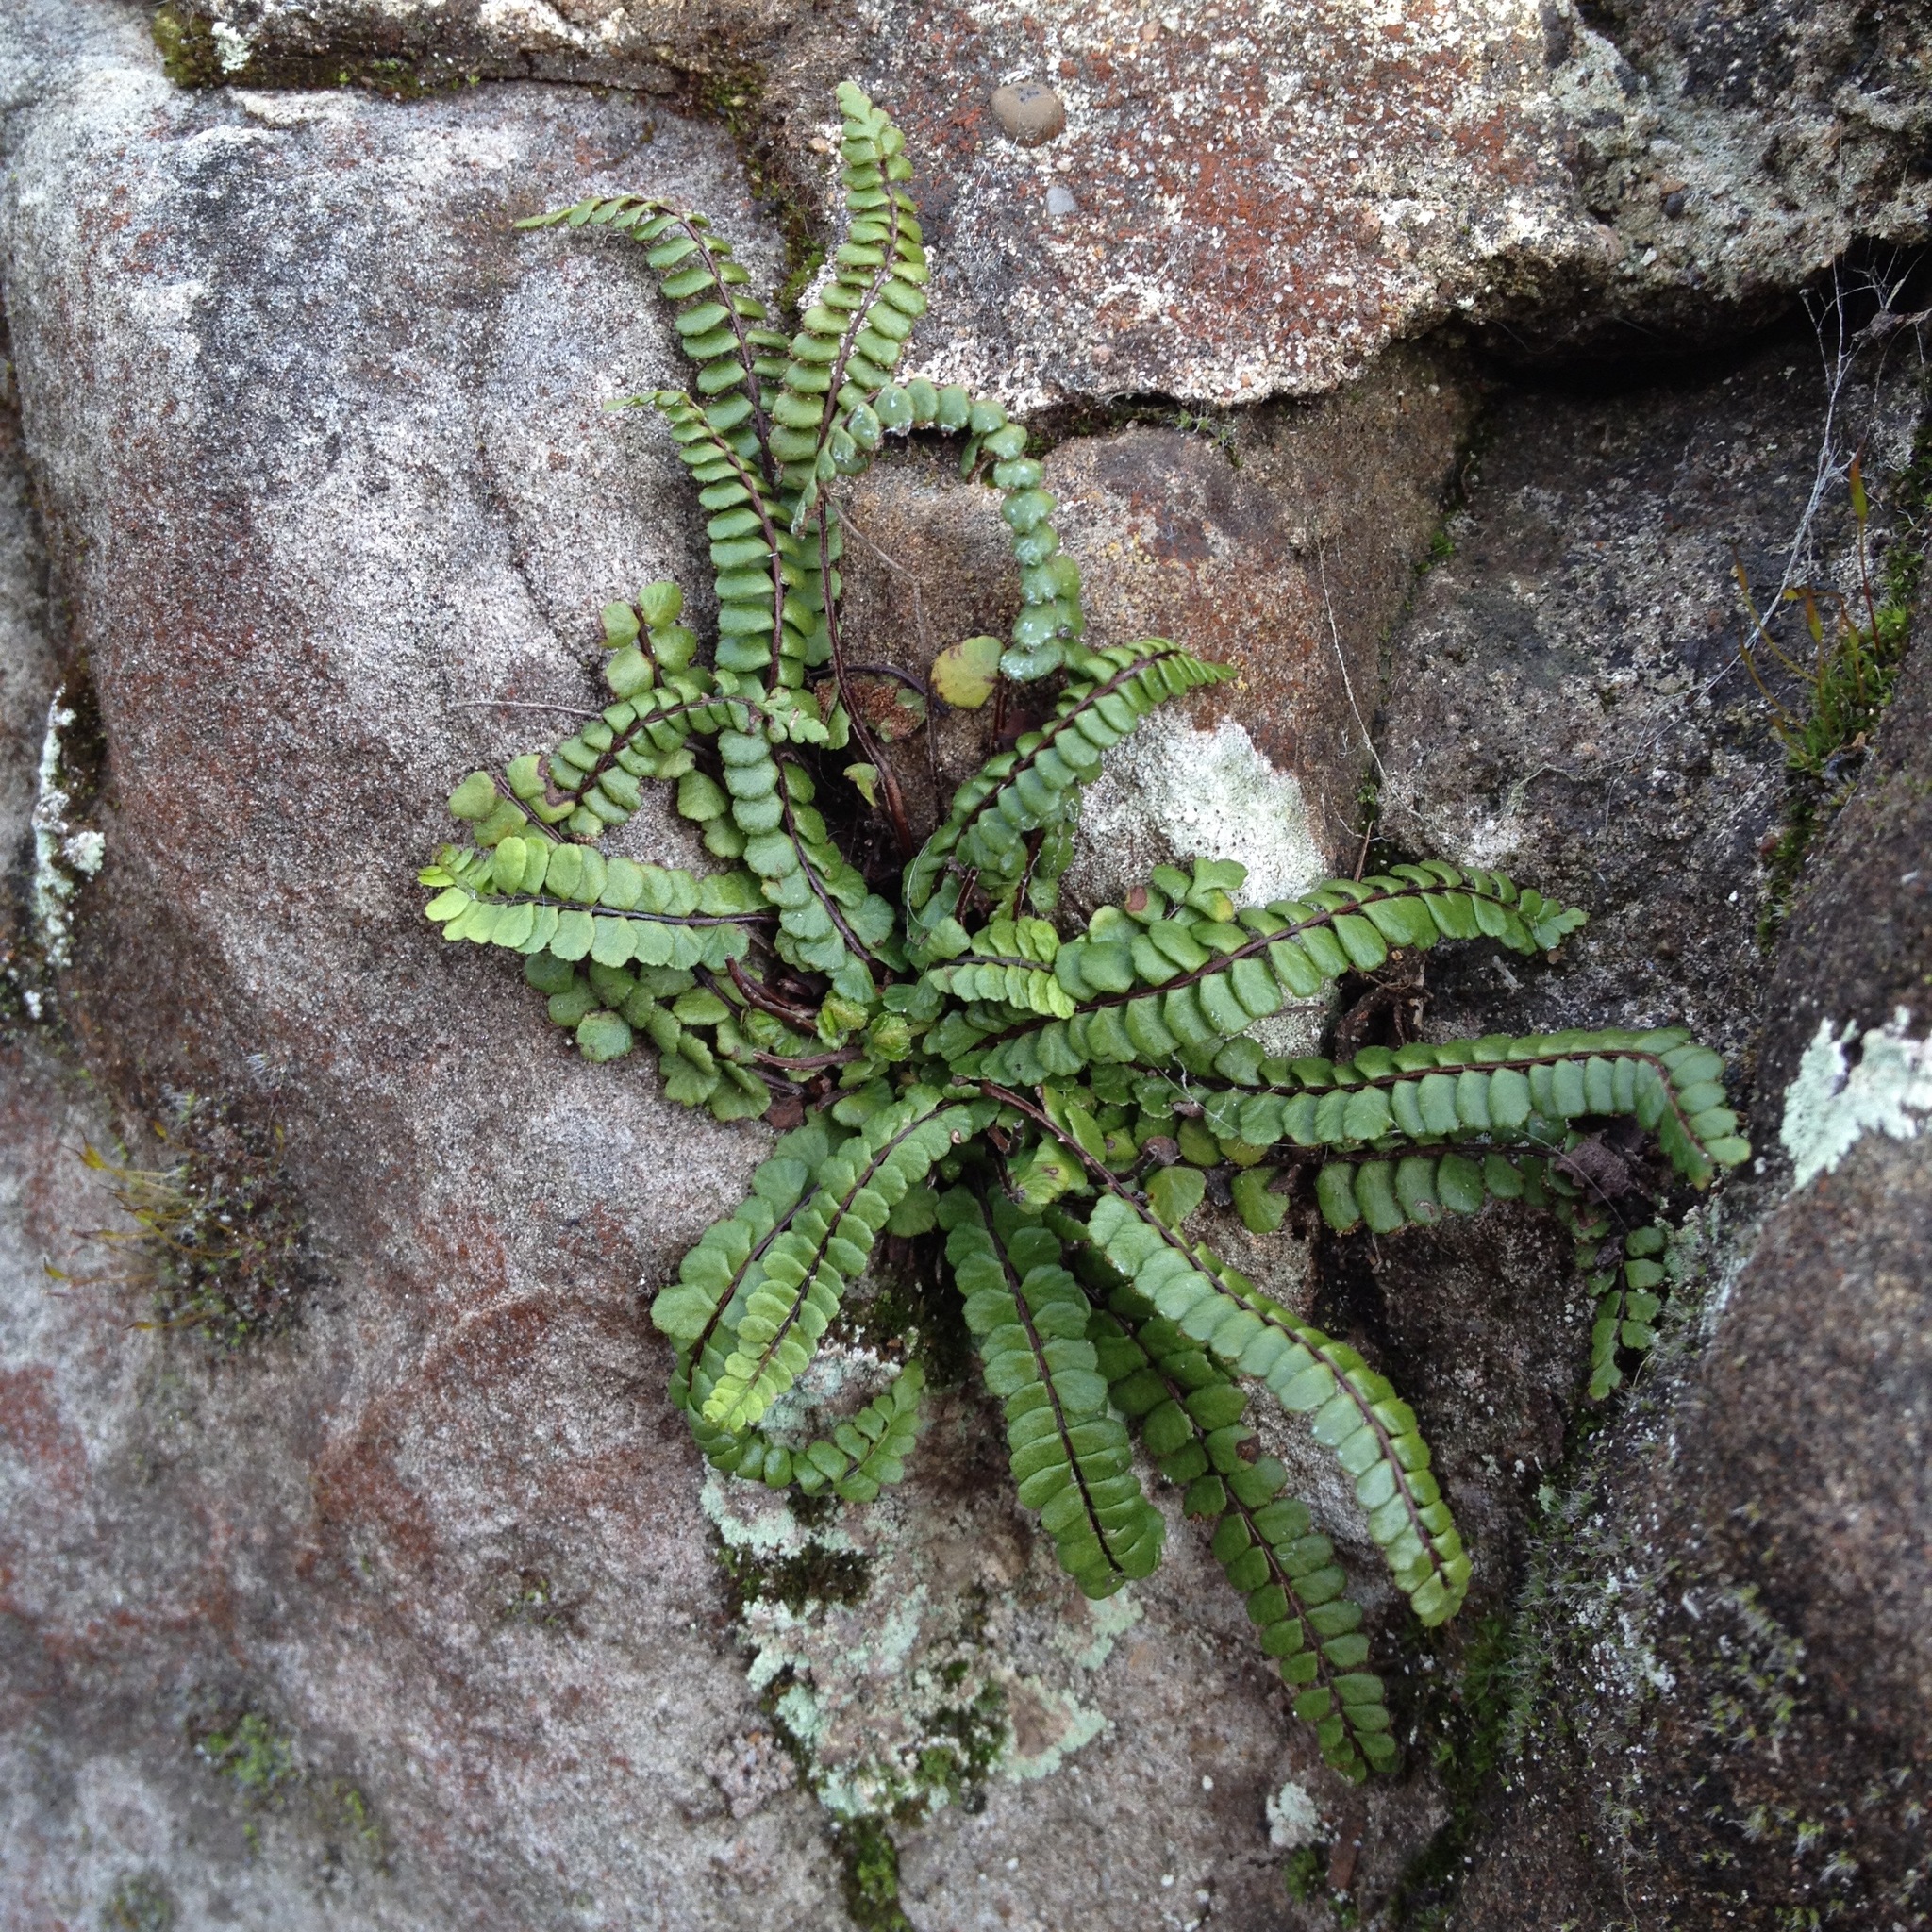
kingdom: Plantae
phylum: Tracheophyta
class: Polypodiopsida
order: Polypodiales
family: Aspleniaceae
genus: Asplenium
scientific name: Asplenium trichomanes
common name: Maidenhair spleenwort
